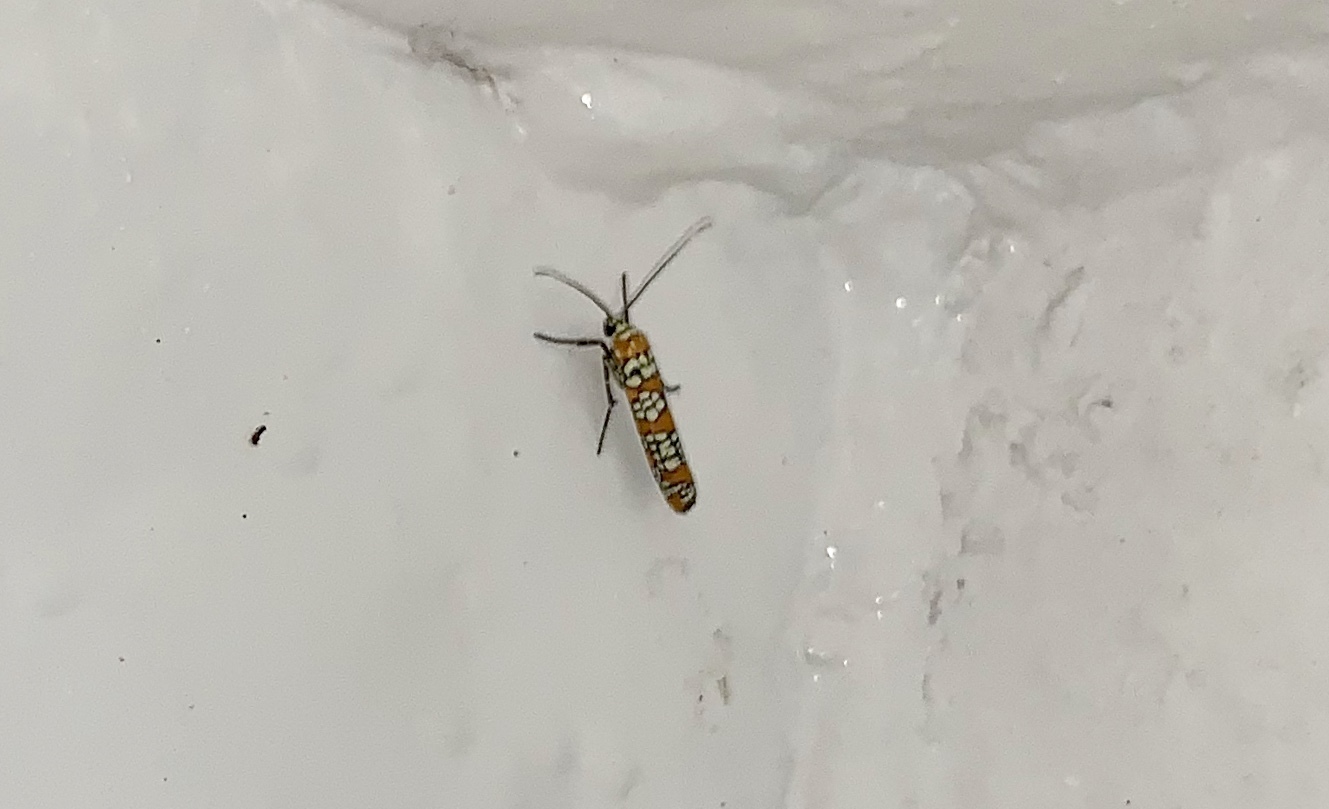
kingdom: Animalia
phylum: Arthropoda
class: Insecta
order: Lepidoptera
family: Attevidae
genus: Atteva
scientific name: Atteva punctella
